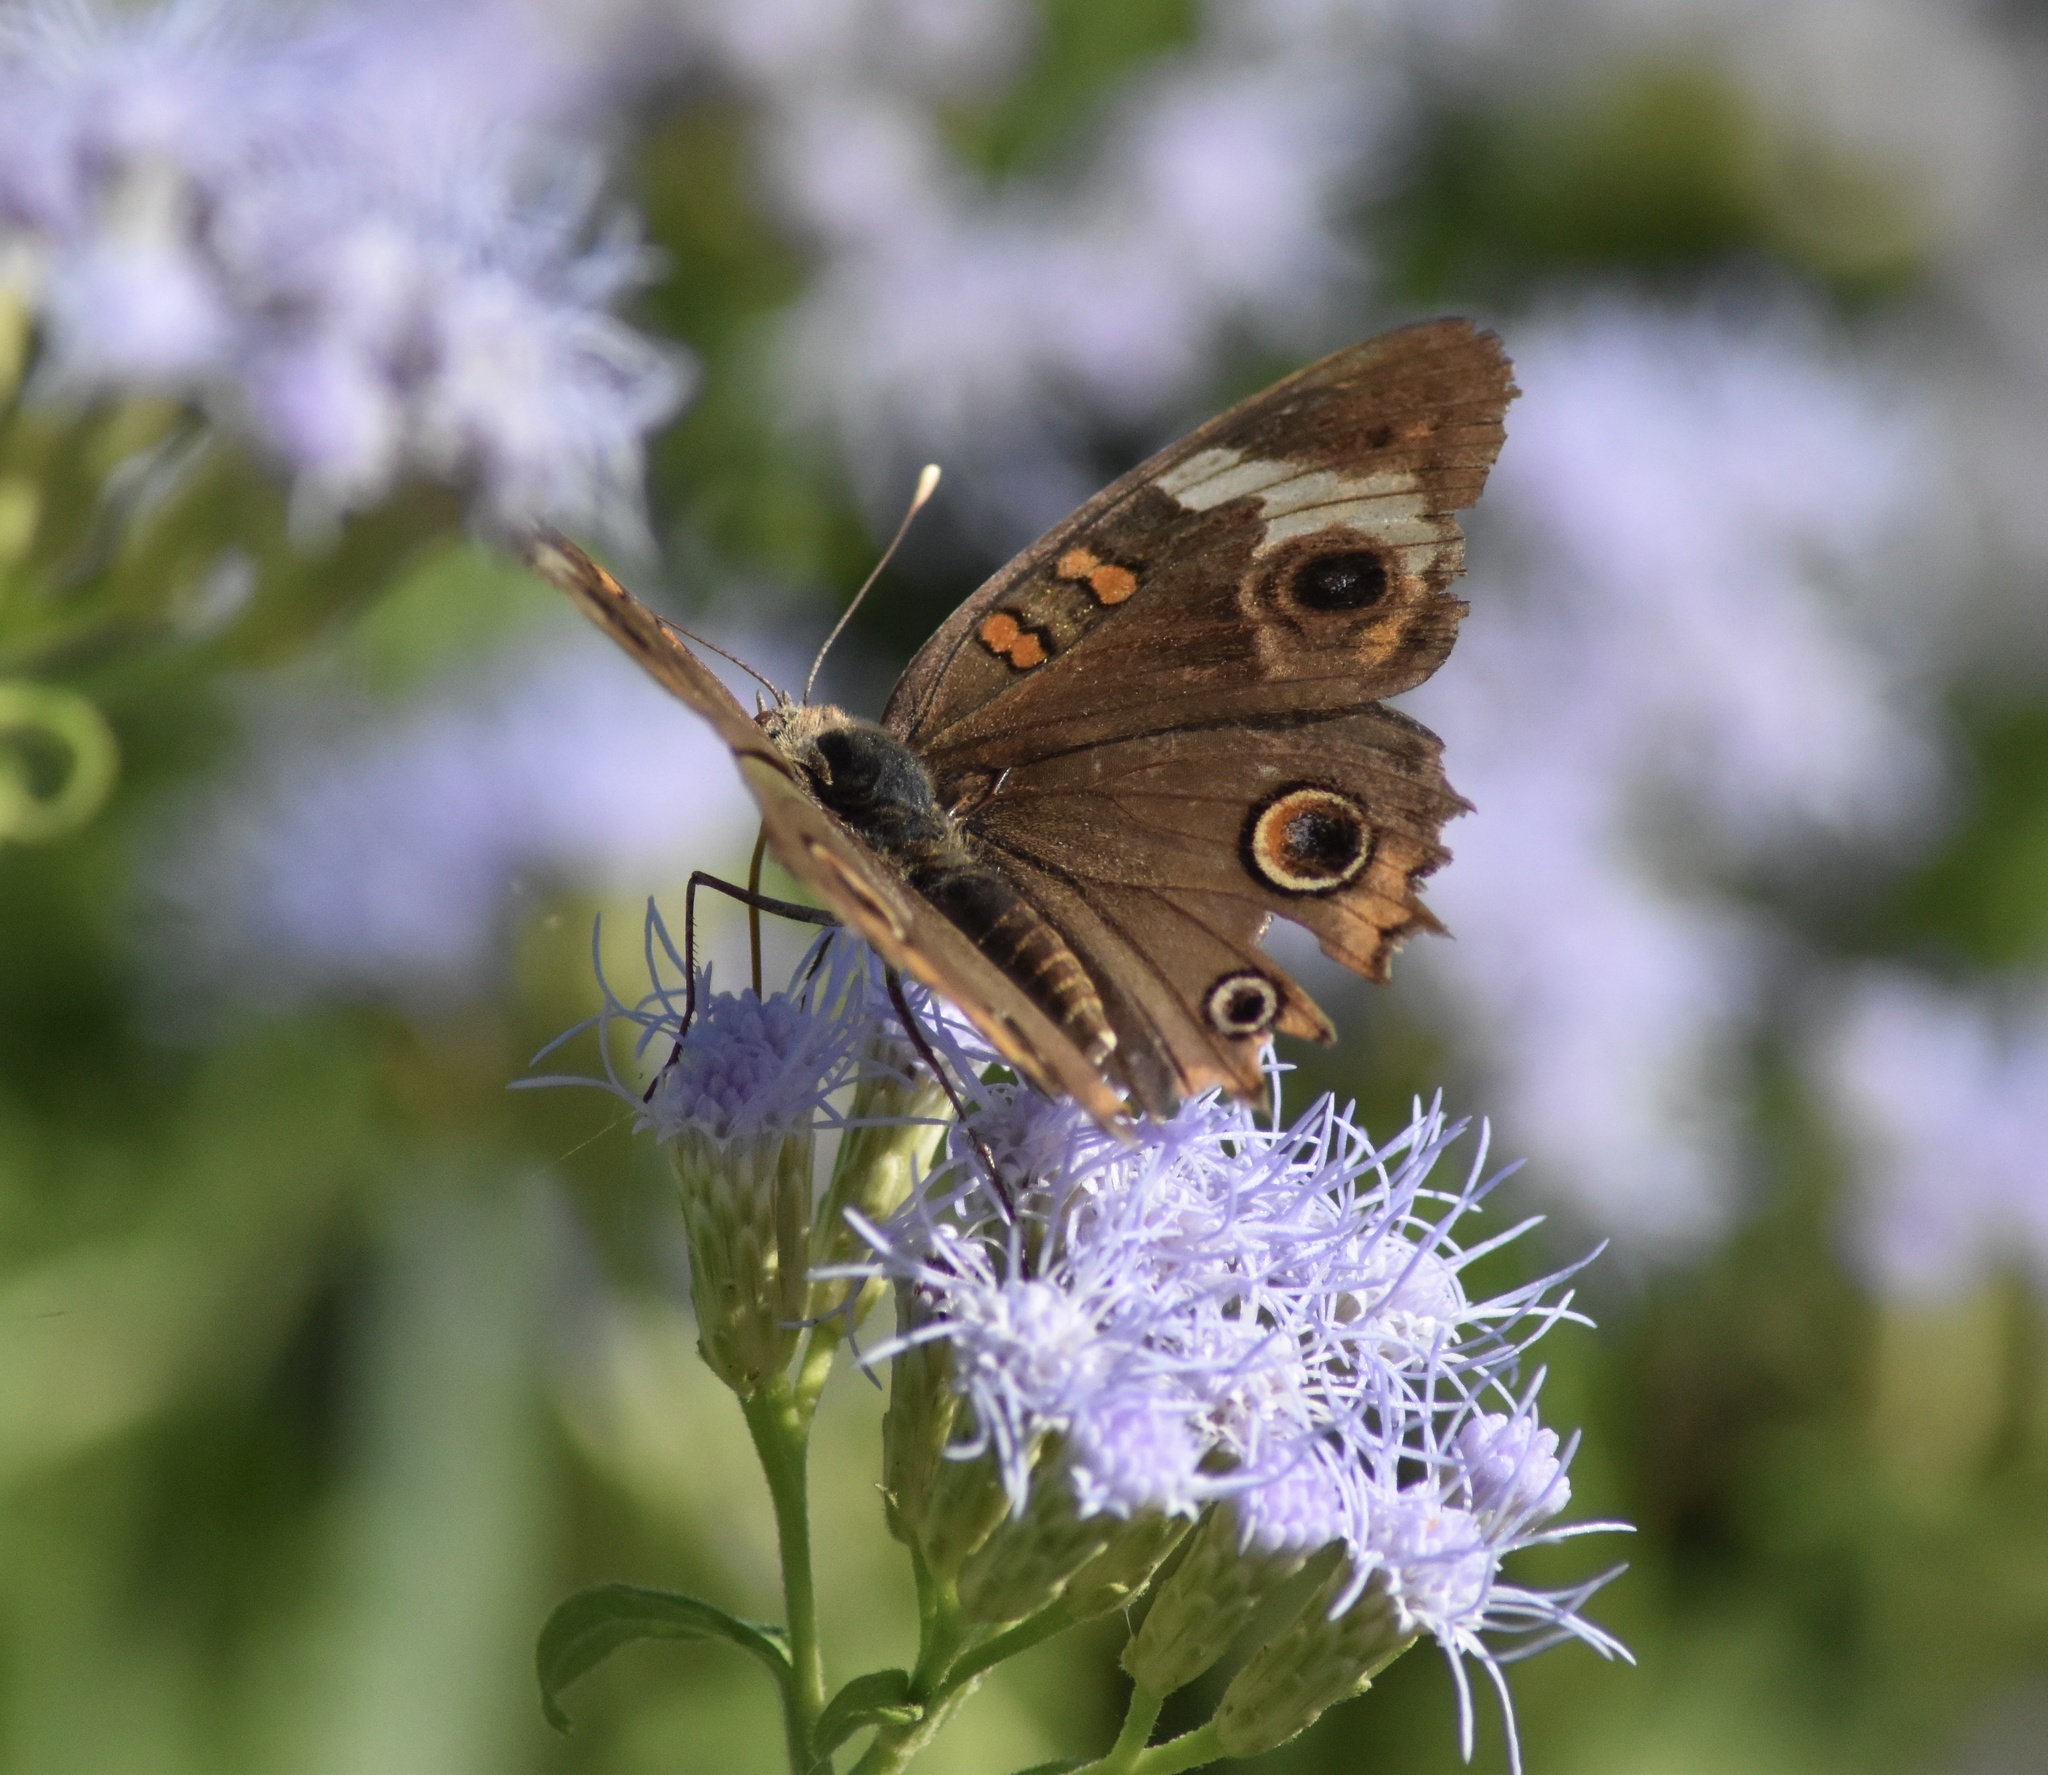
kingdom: Animalia
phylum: Arthropoda
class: Insecta
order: Lepidoptera
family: Nymphalidae
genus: Junonia
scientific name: Junonia coenia
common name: Common buckeye
